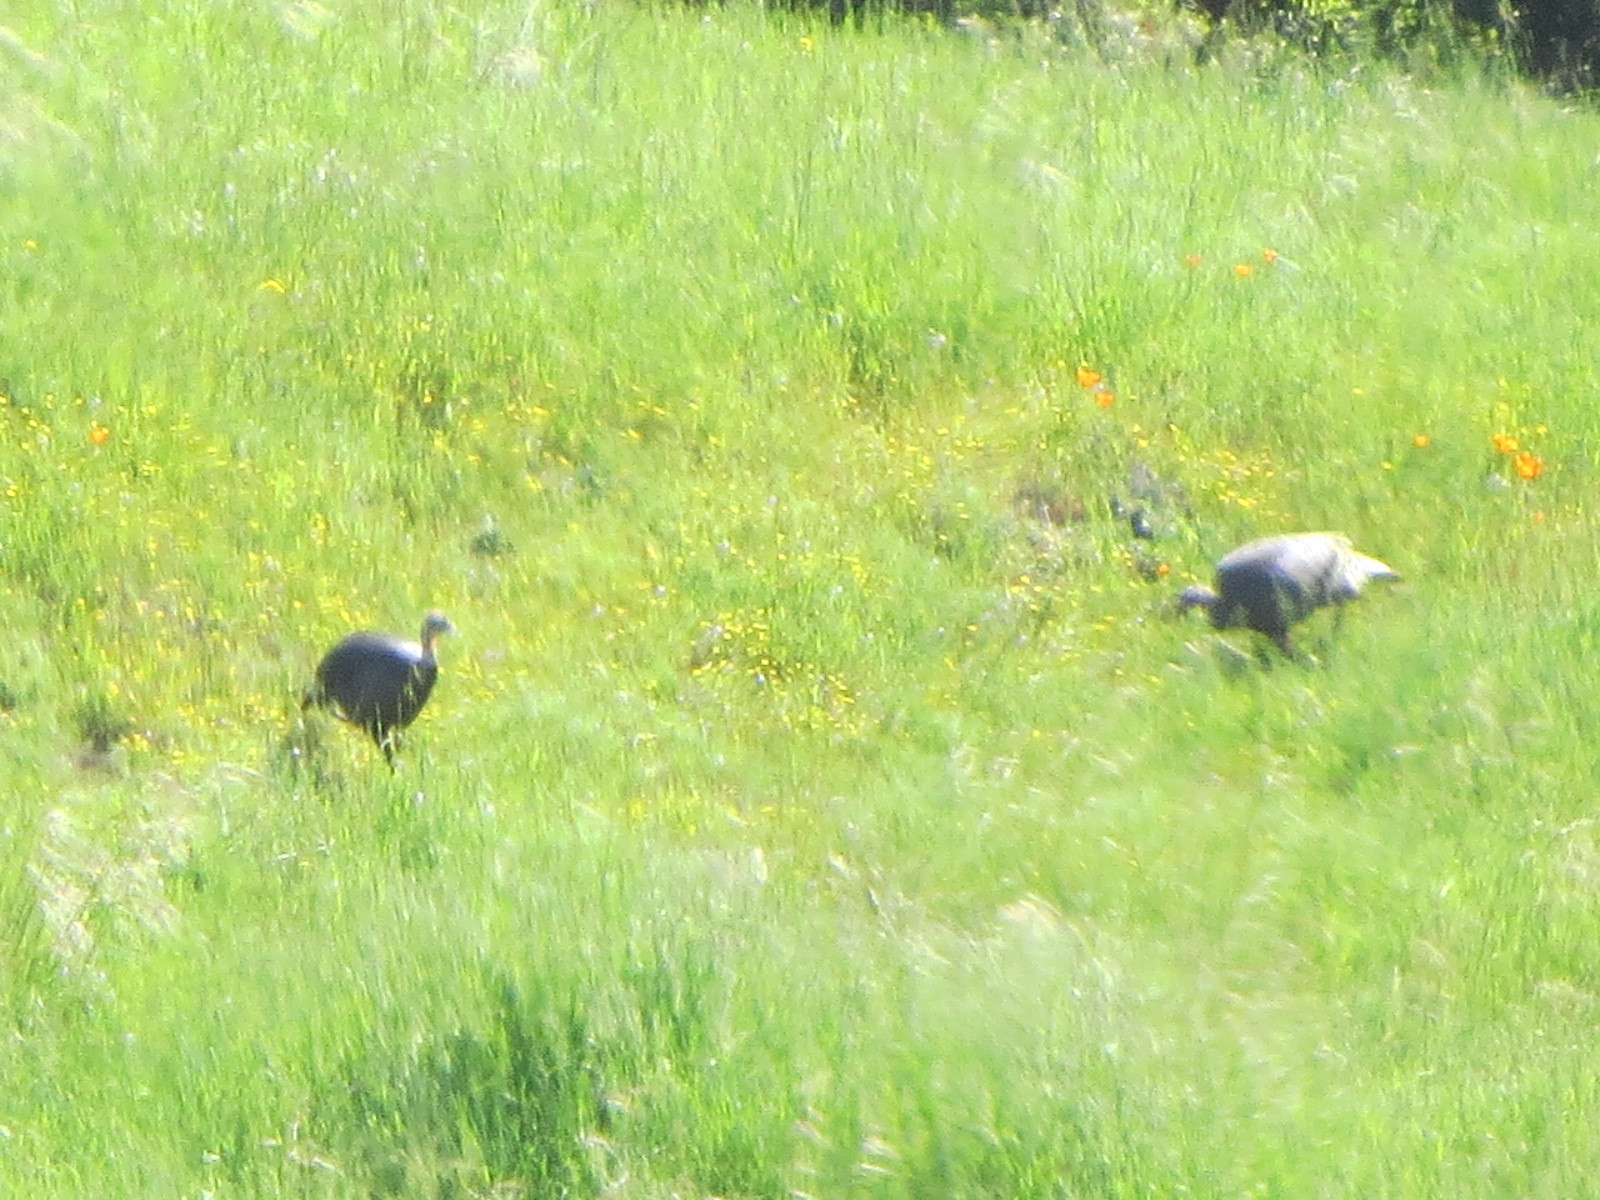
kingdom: Animalia
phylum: Chordata
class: Aves
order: Galliformes
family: Phasianidae
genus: Meleagris
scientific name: Meleagris gallopavo
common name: Wild turkey
